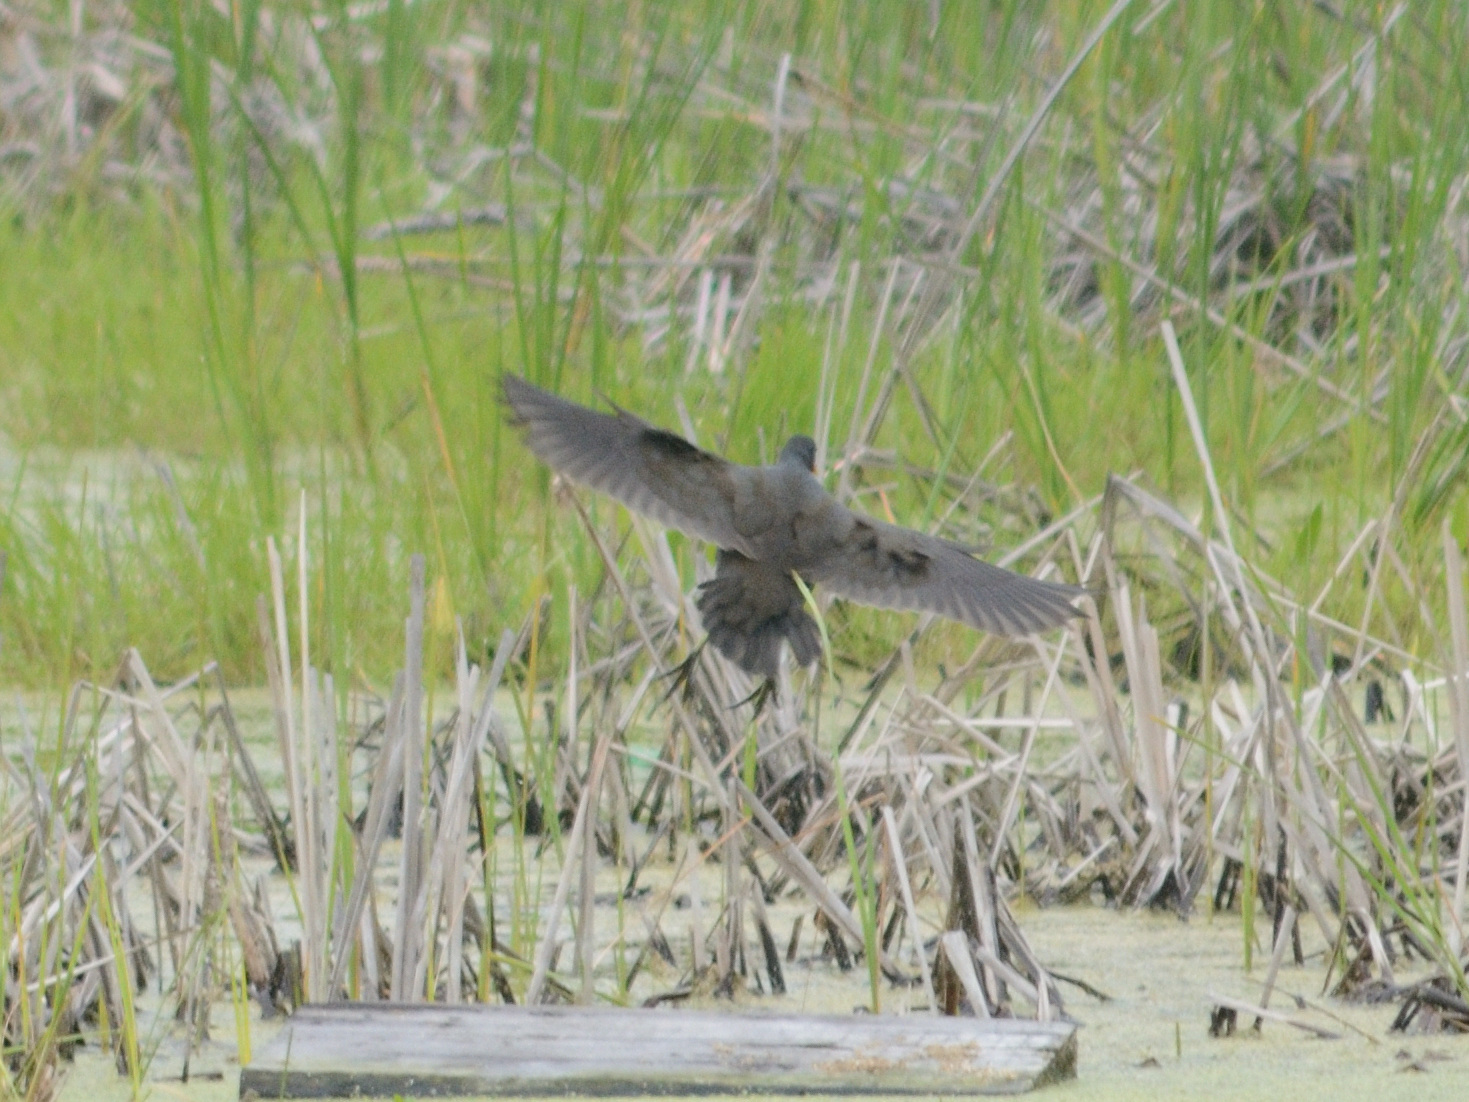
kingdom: Animalia
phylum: Chordata
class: Aves
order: Gruiformes
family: Rallidae
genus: Gallinula
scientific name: Gallinula chloropus
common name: Common moorhen
